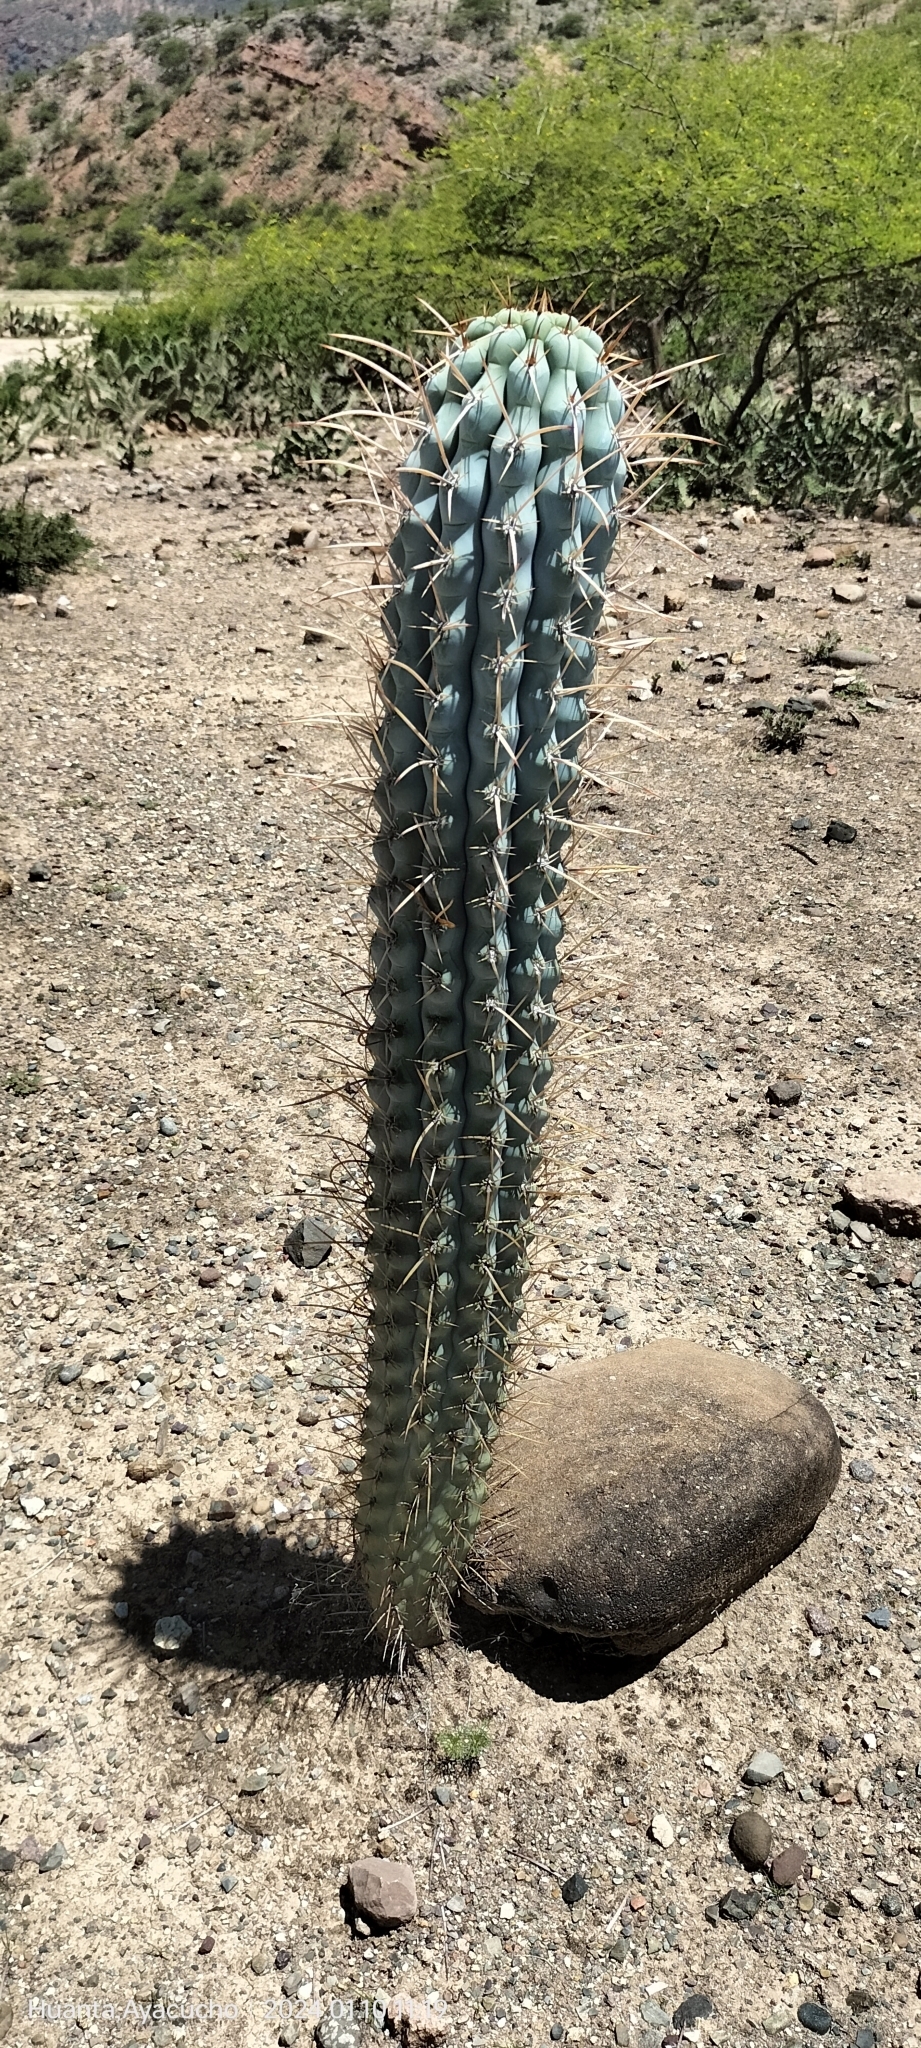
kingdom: Plantae
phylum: Tracheophyta
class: Magnoliopsida
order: Caryophyllales
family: Cactaceae
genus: Browningia
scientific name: Browningia hertlingiana
